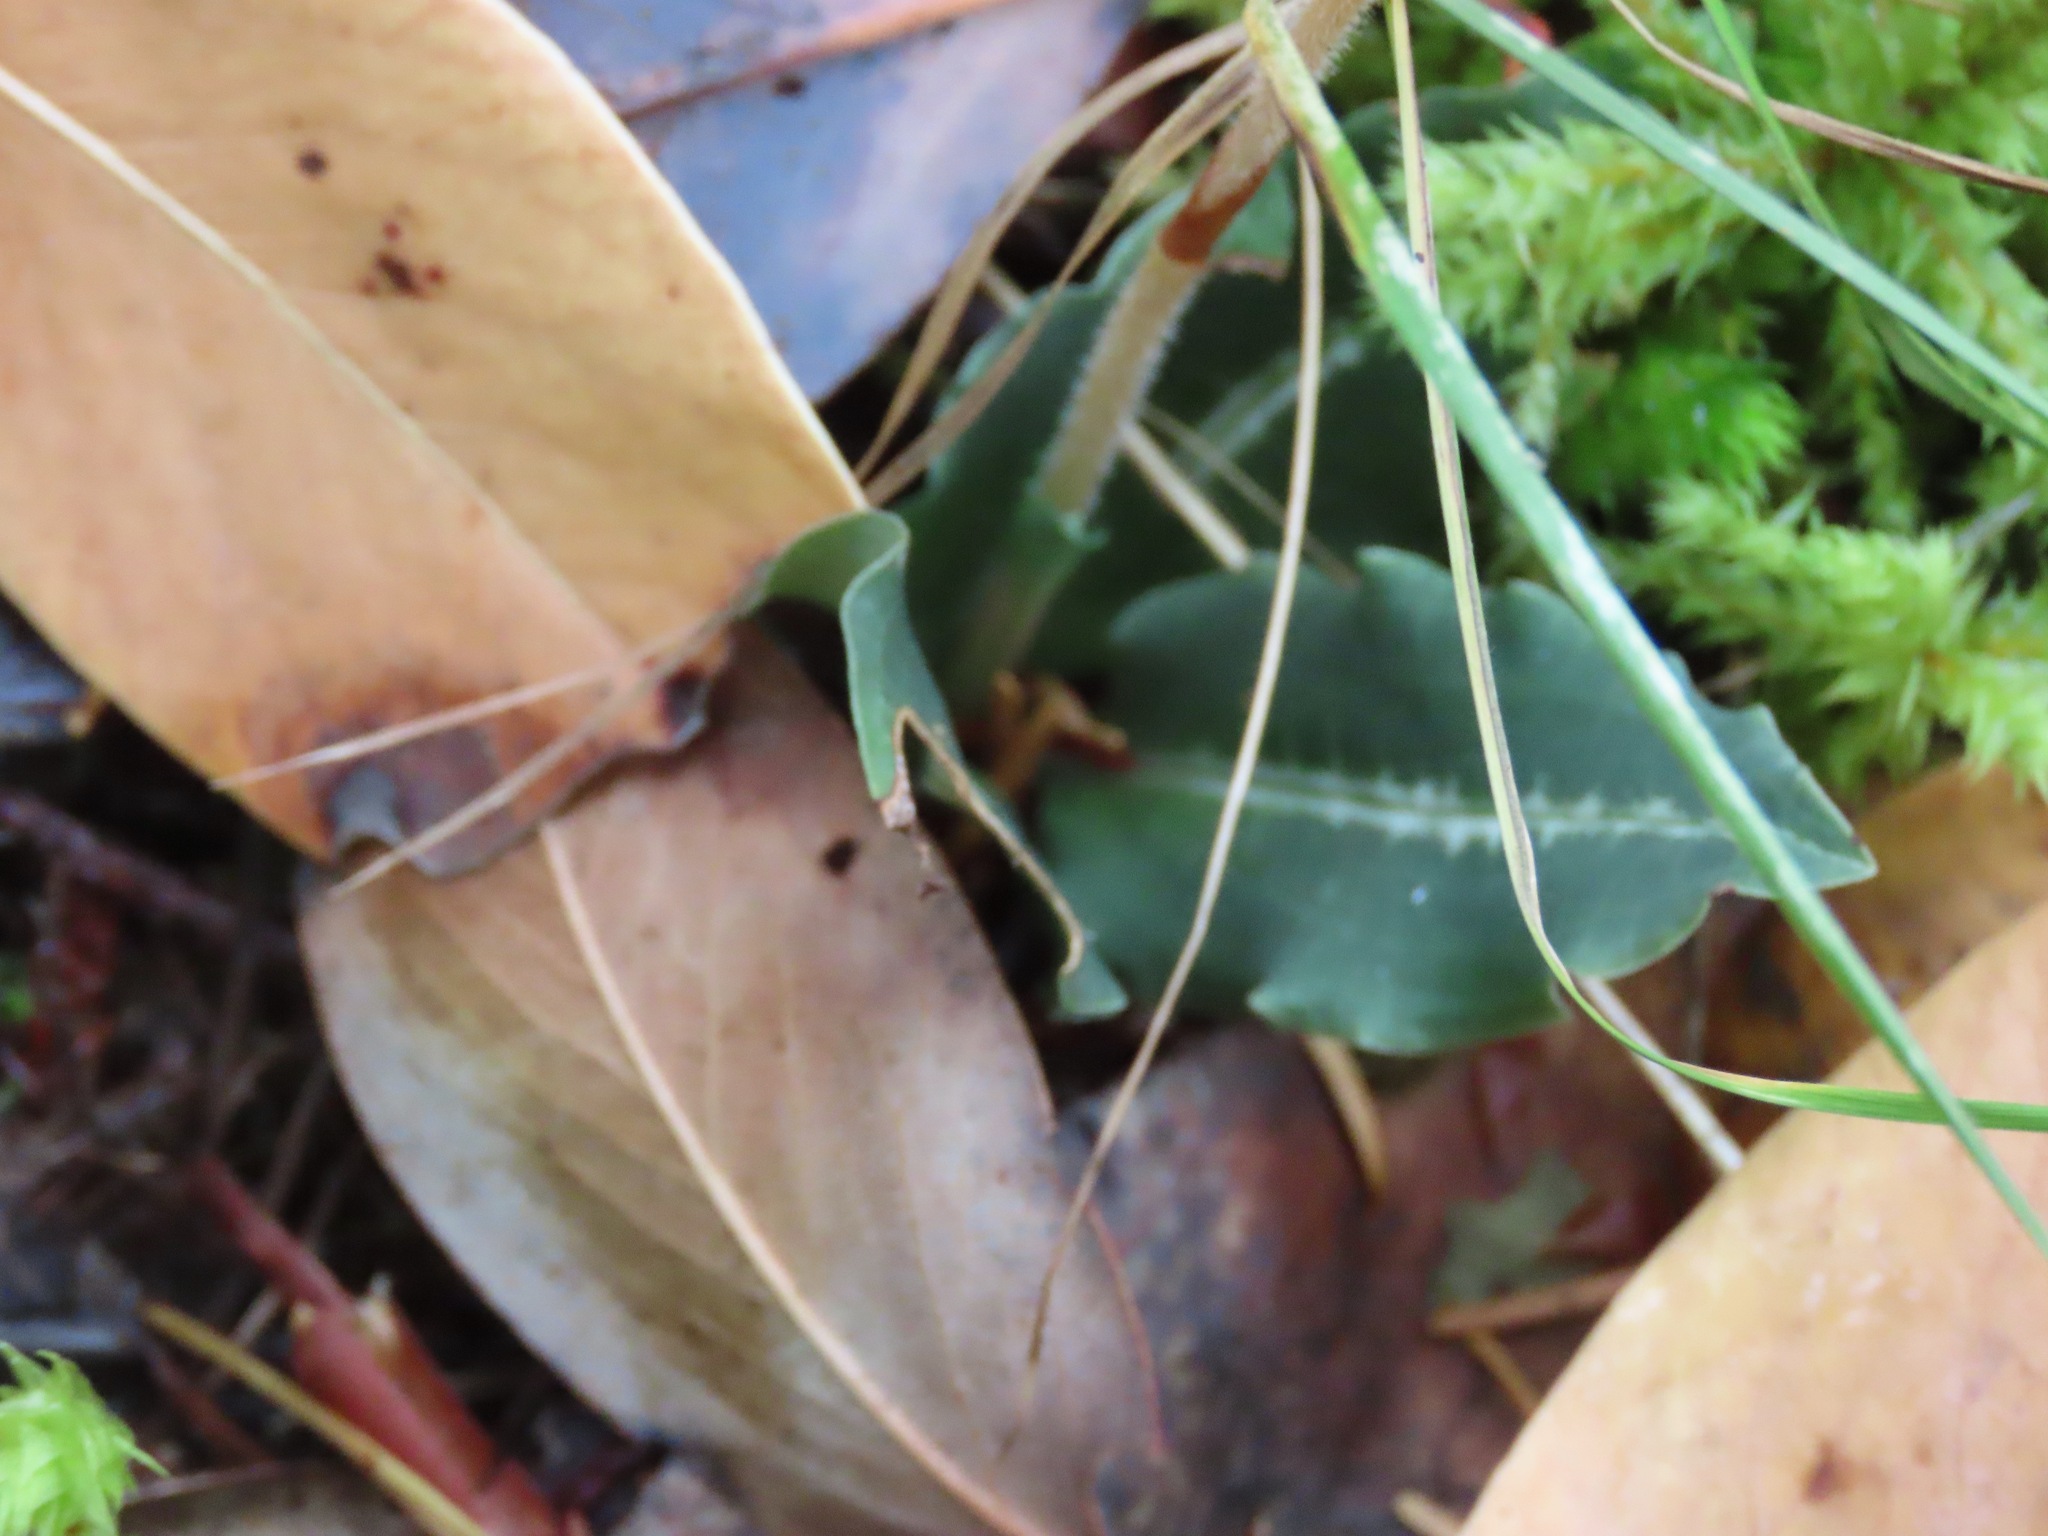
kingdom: Plantae
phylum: Tracheophyta
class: Liliopsida
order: Asparagales
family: Orchidaceae
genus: Goodyera
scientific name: Goodyera oblongifolia
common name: Giant rattlesnake-plantain
